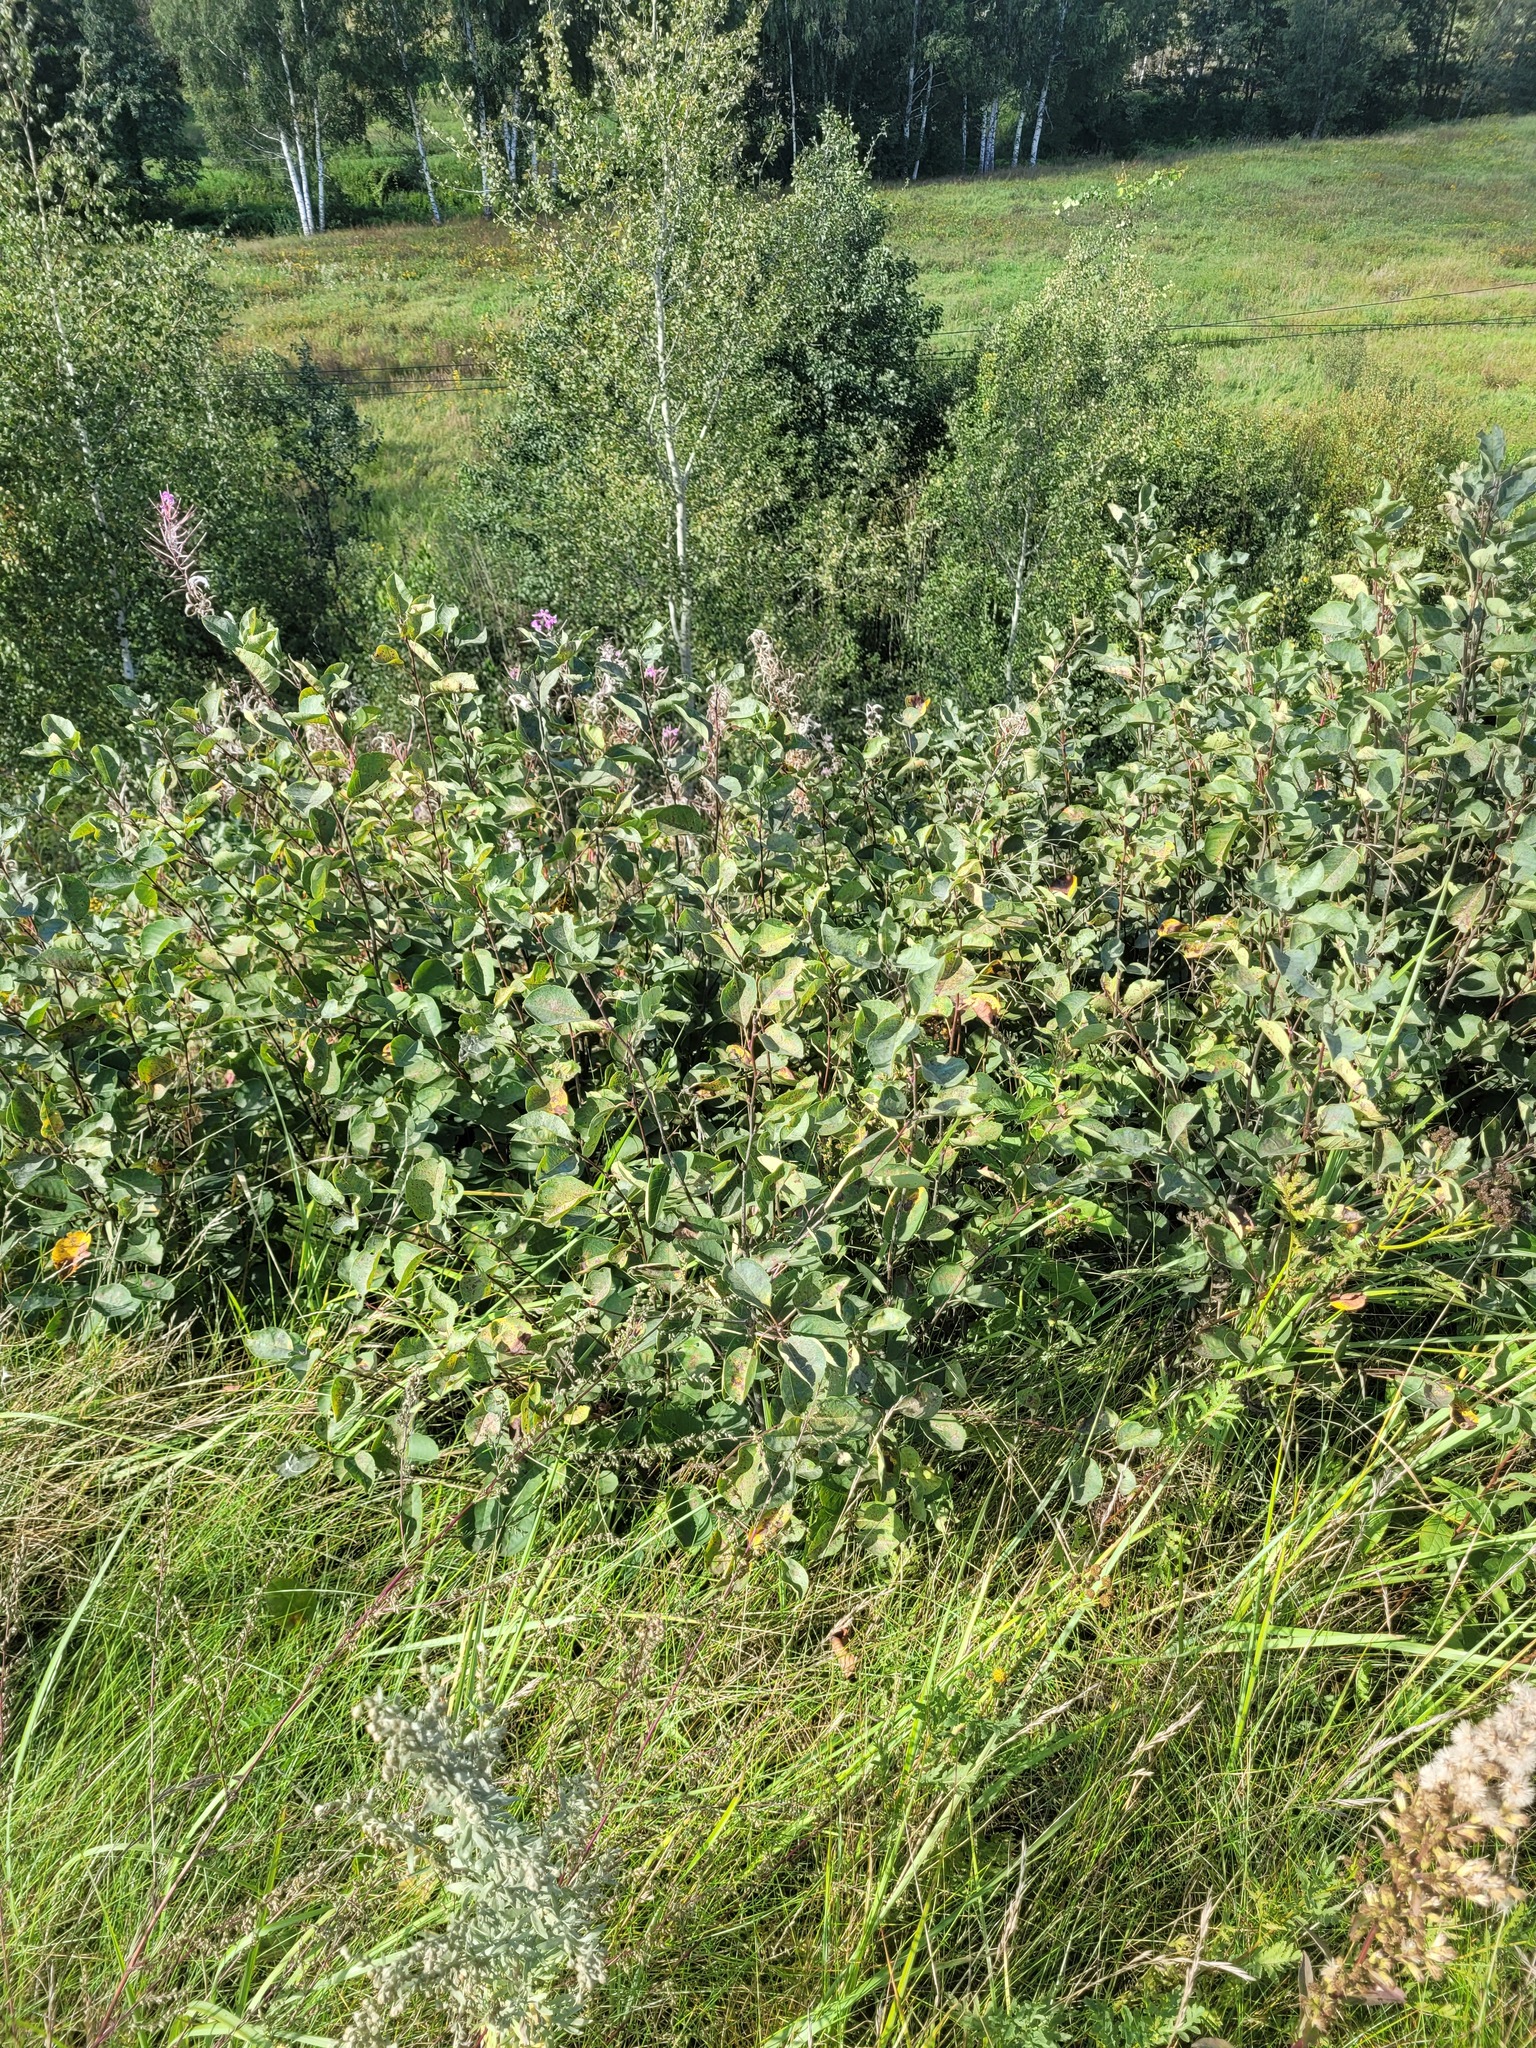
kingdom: Plantae
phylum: Tracheophyta
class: Magnoliopsida
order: Rosales
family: Rosaceae
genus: Amelanchier
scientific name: Amelanchier
